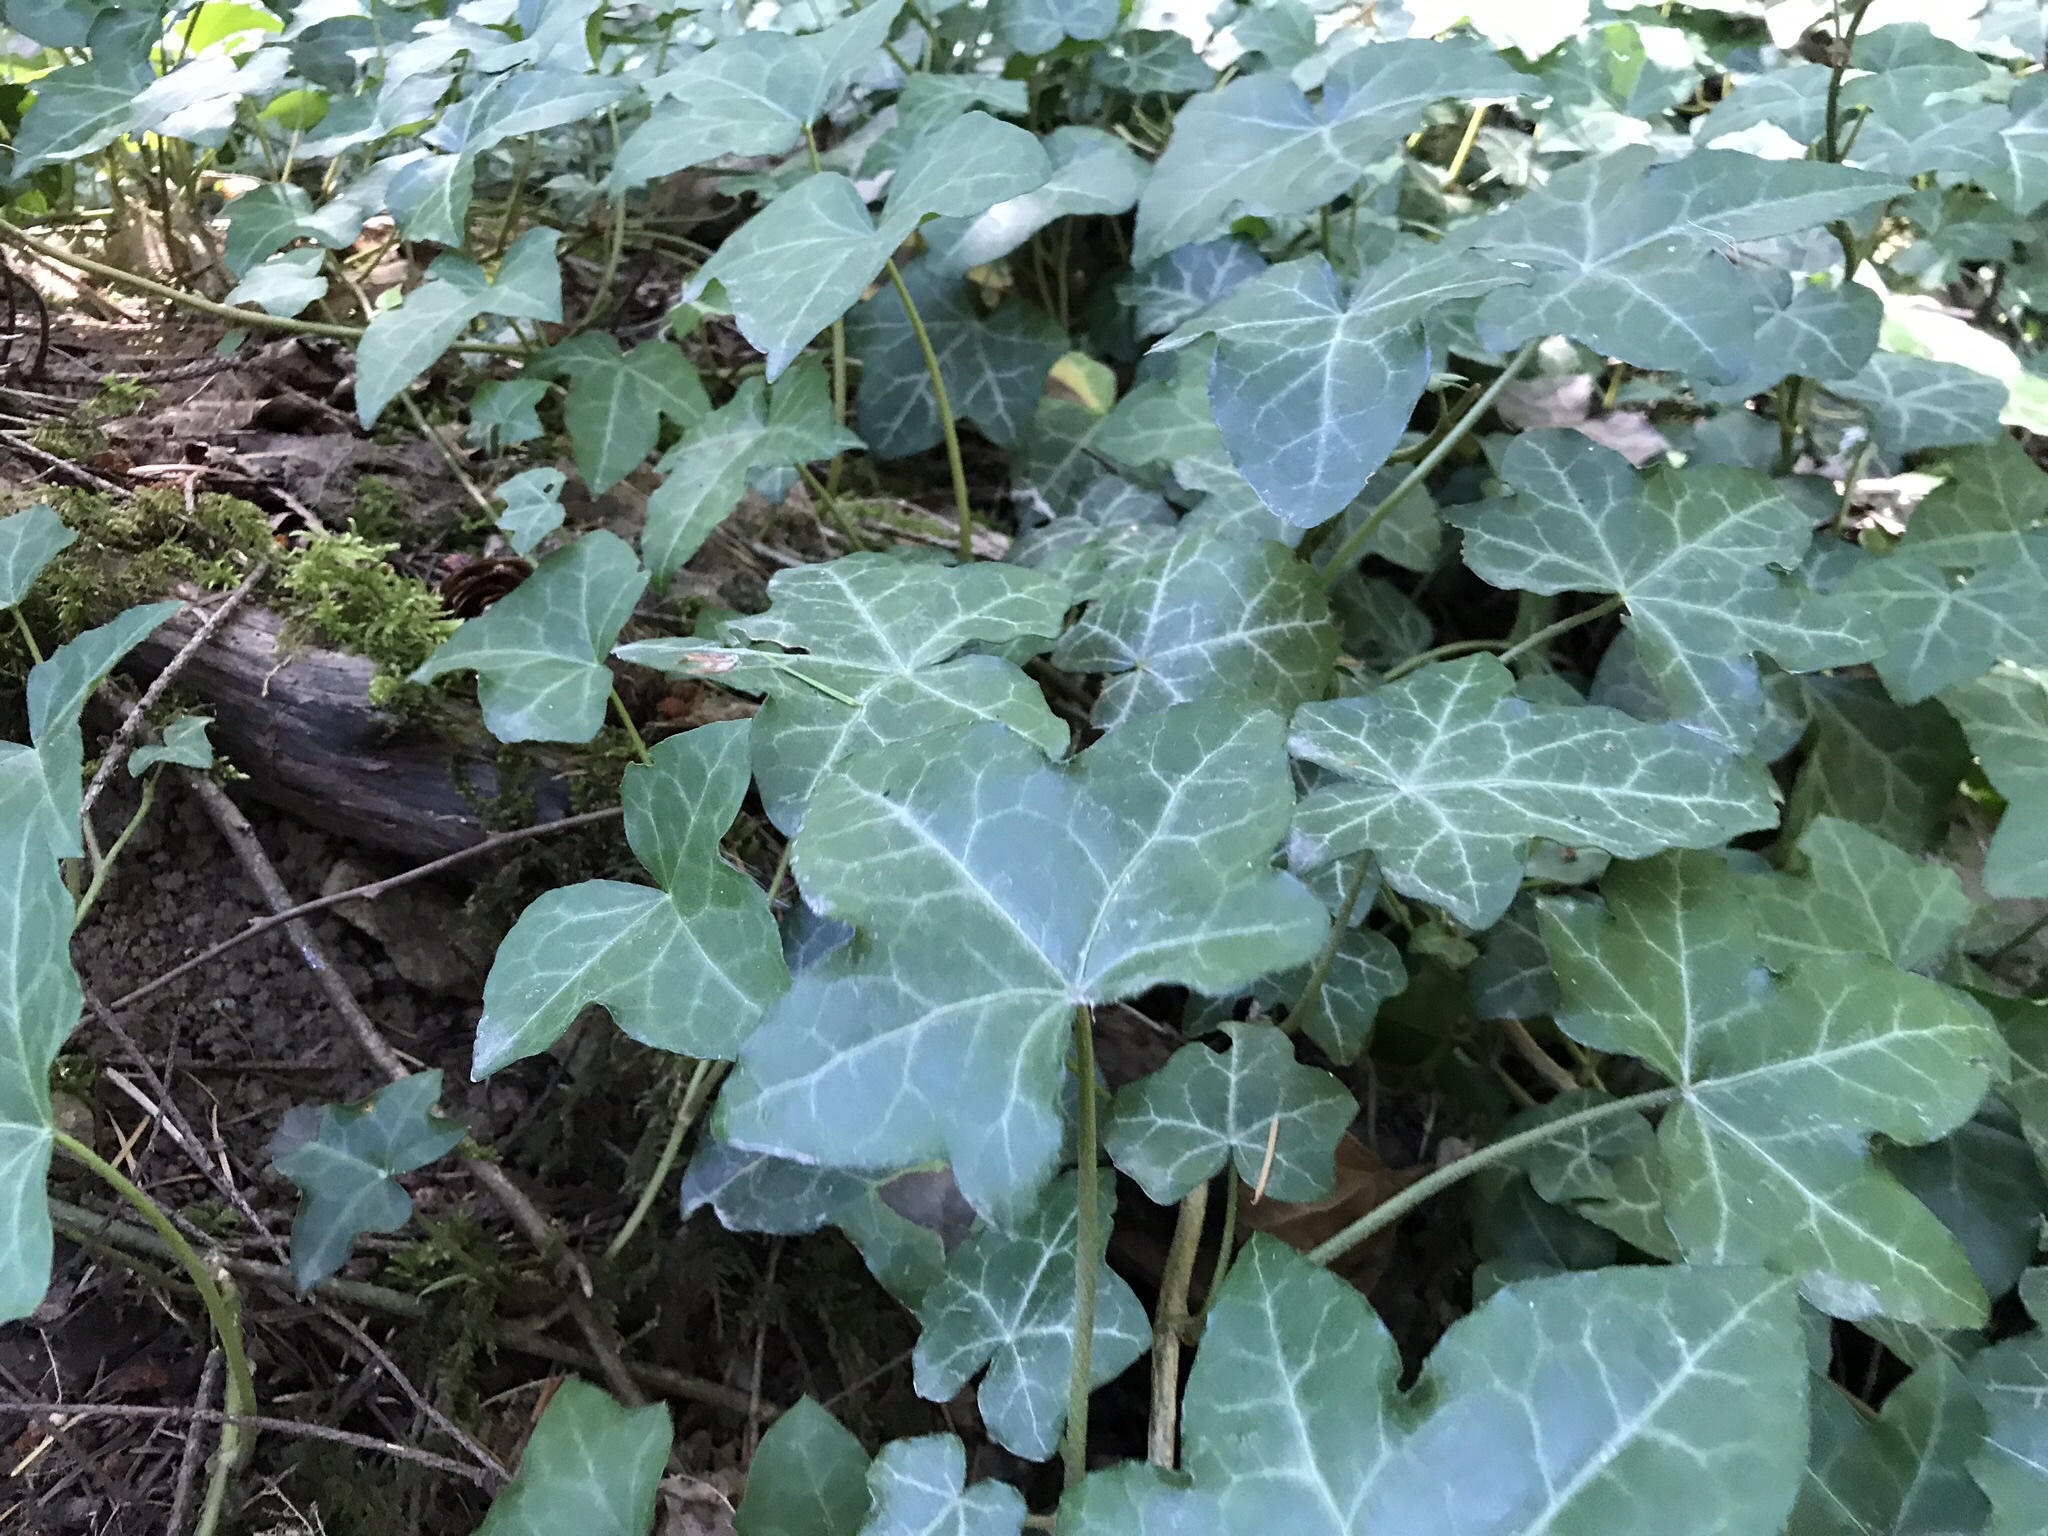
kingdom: Plantae
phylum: Tracheophyta
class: Magnoliopsida
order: Apiales
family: Araliaceae
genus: Hedera
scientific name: Hedera helix
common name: Ivy
